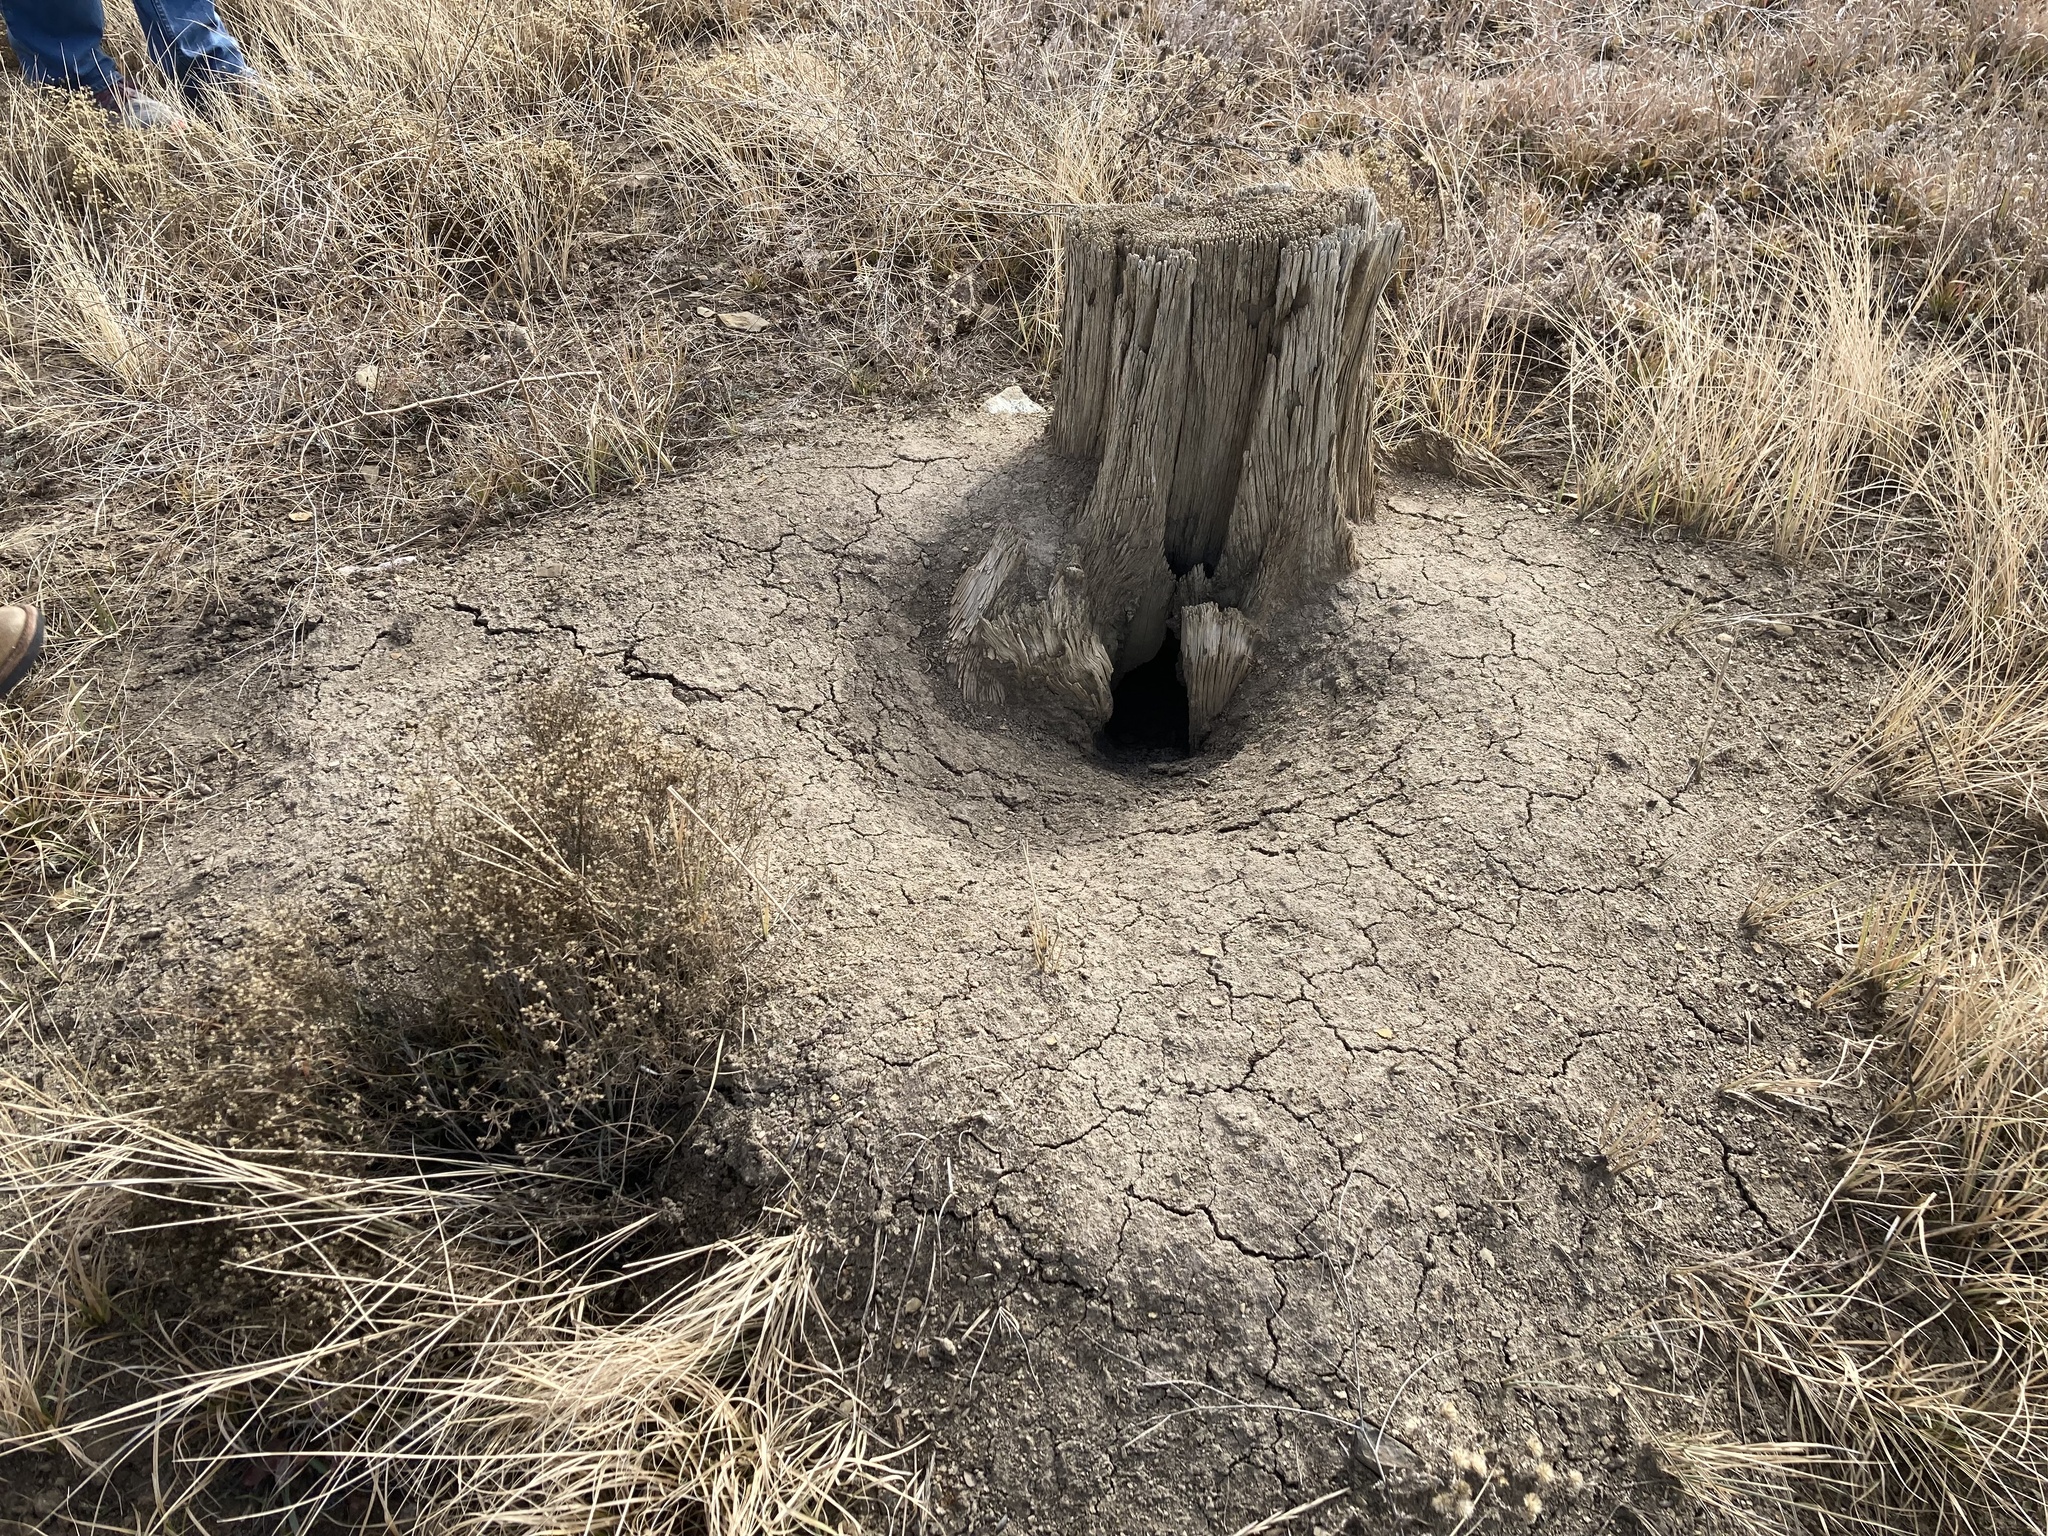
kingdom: Animalia
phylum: Chordata
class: Mammalia
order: Rodentia
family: Sciuridae
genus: Cynomys
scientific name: Cynomys gunnisoni
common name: Gunnison's prairie dog
